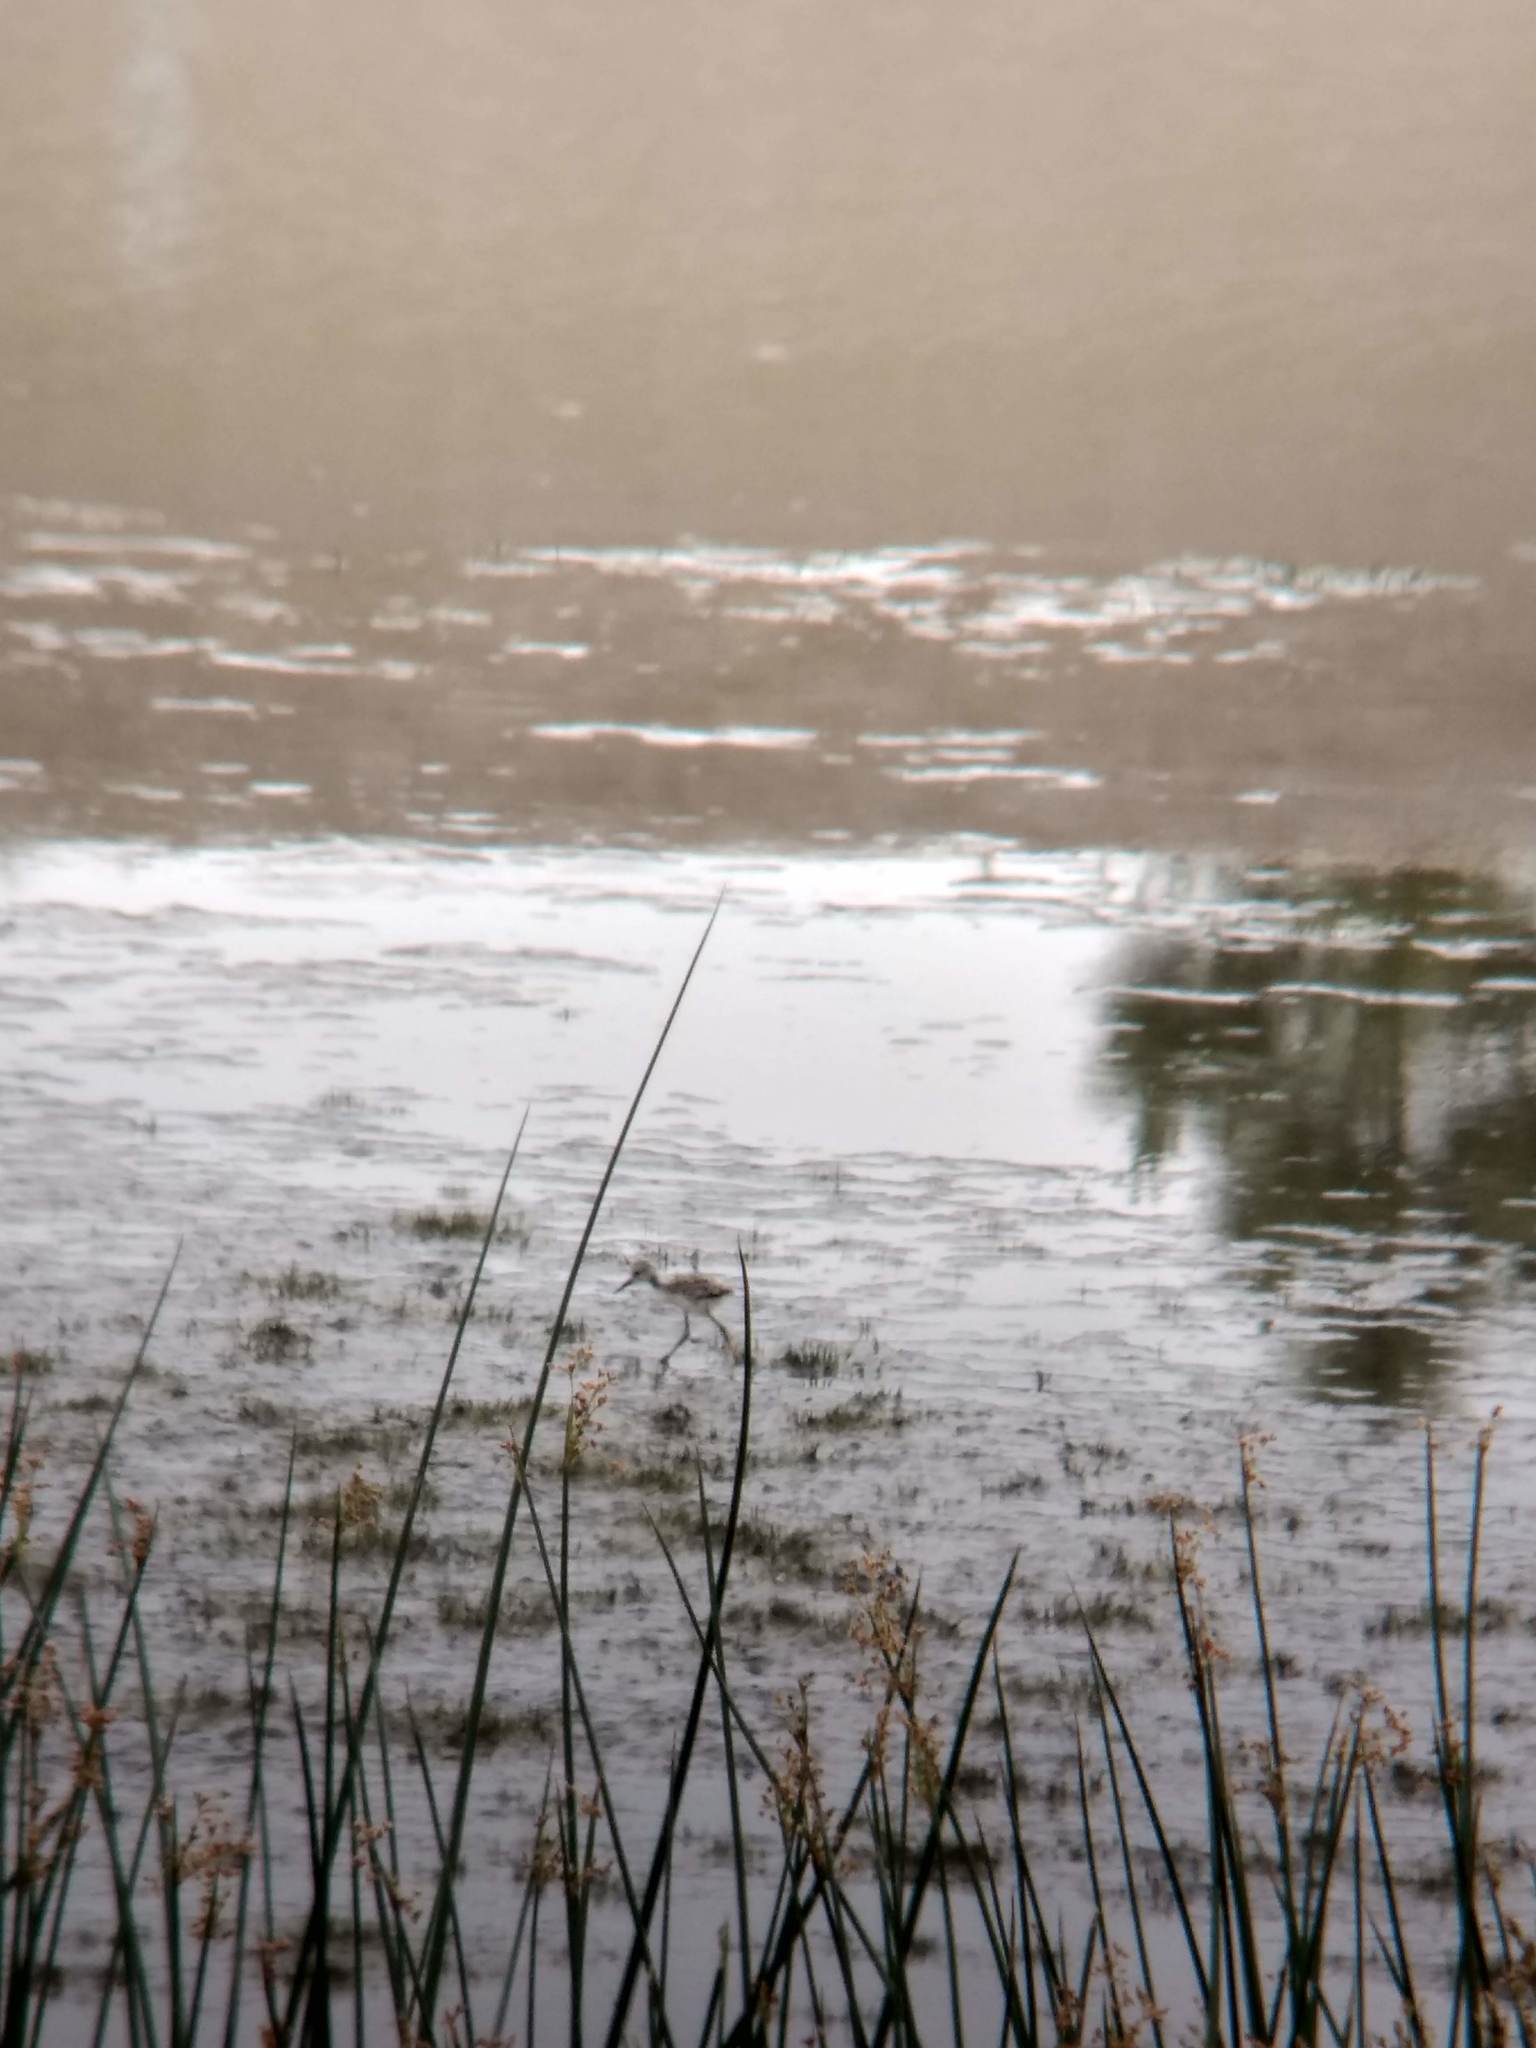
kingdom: Animalia
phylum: Chordata
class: Aves
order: Charadriiformes
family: Recurvirostridae
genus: Himantopus
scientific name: Himantopus mexicanus
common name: Black-necked stilt
